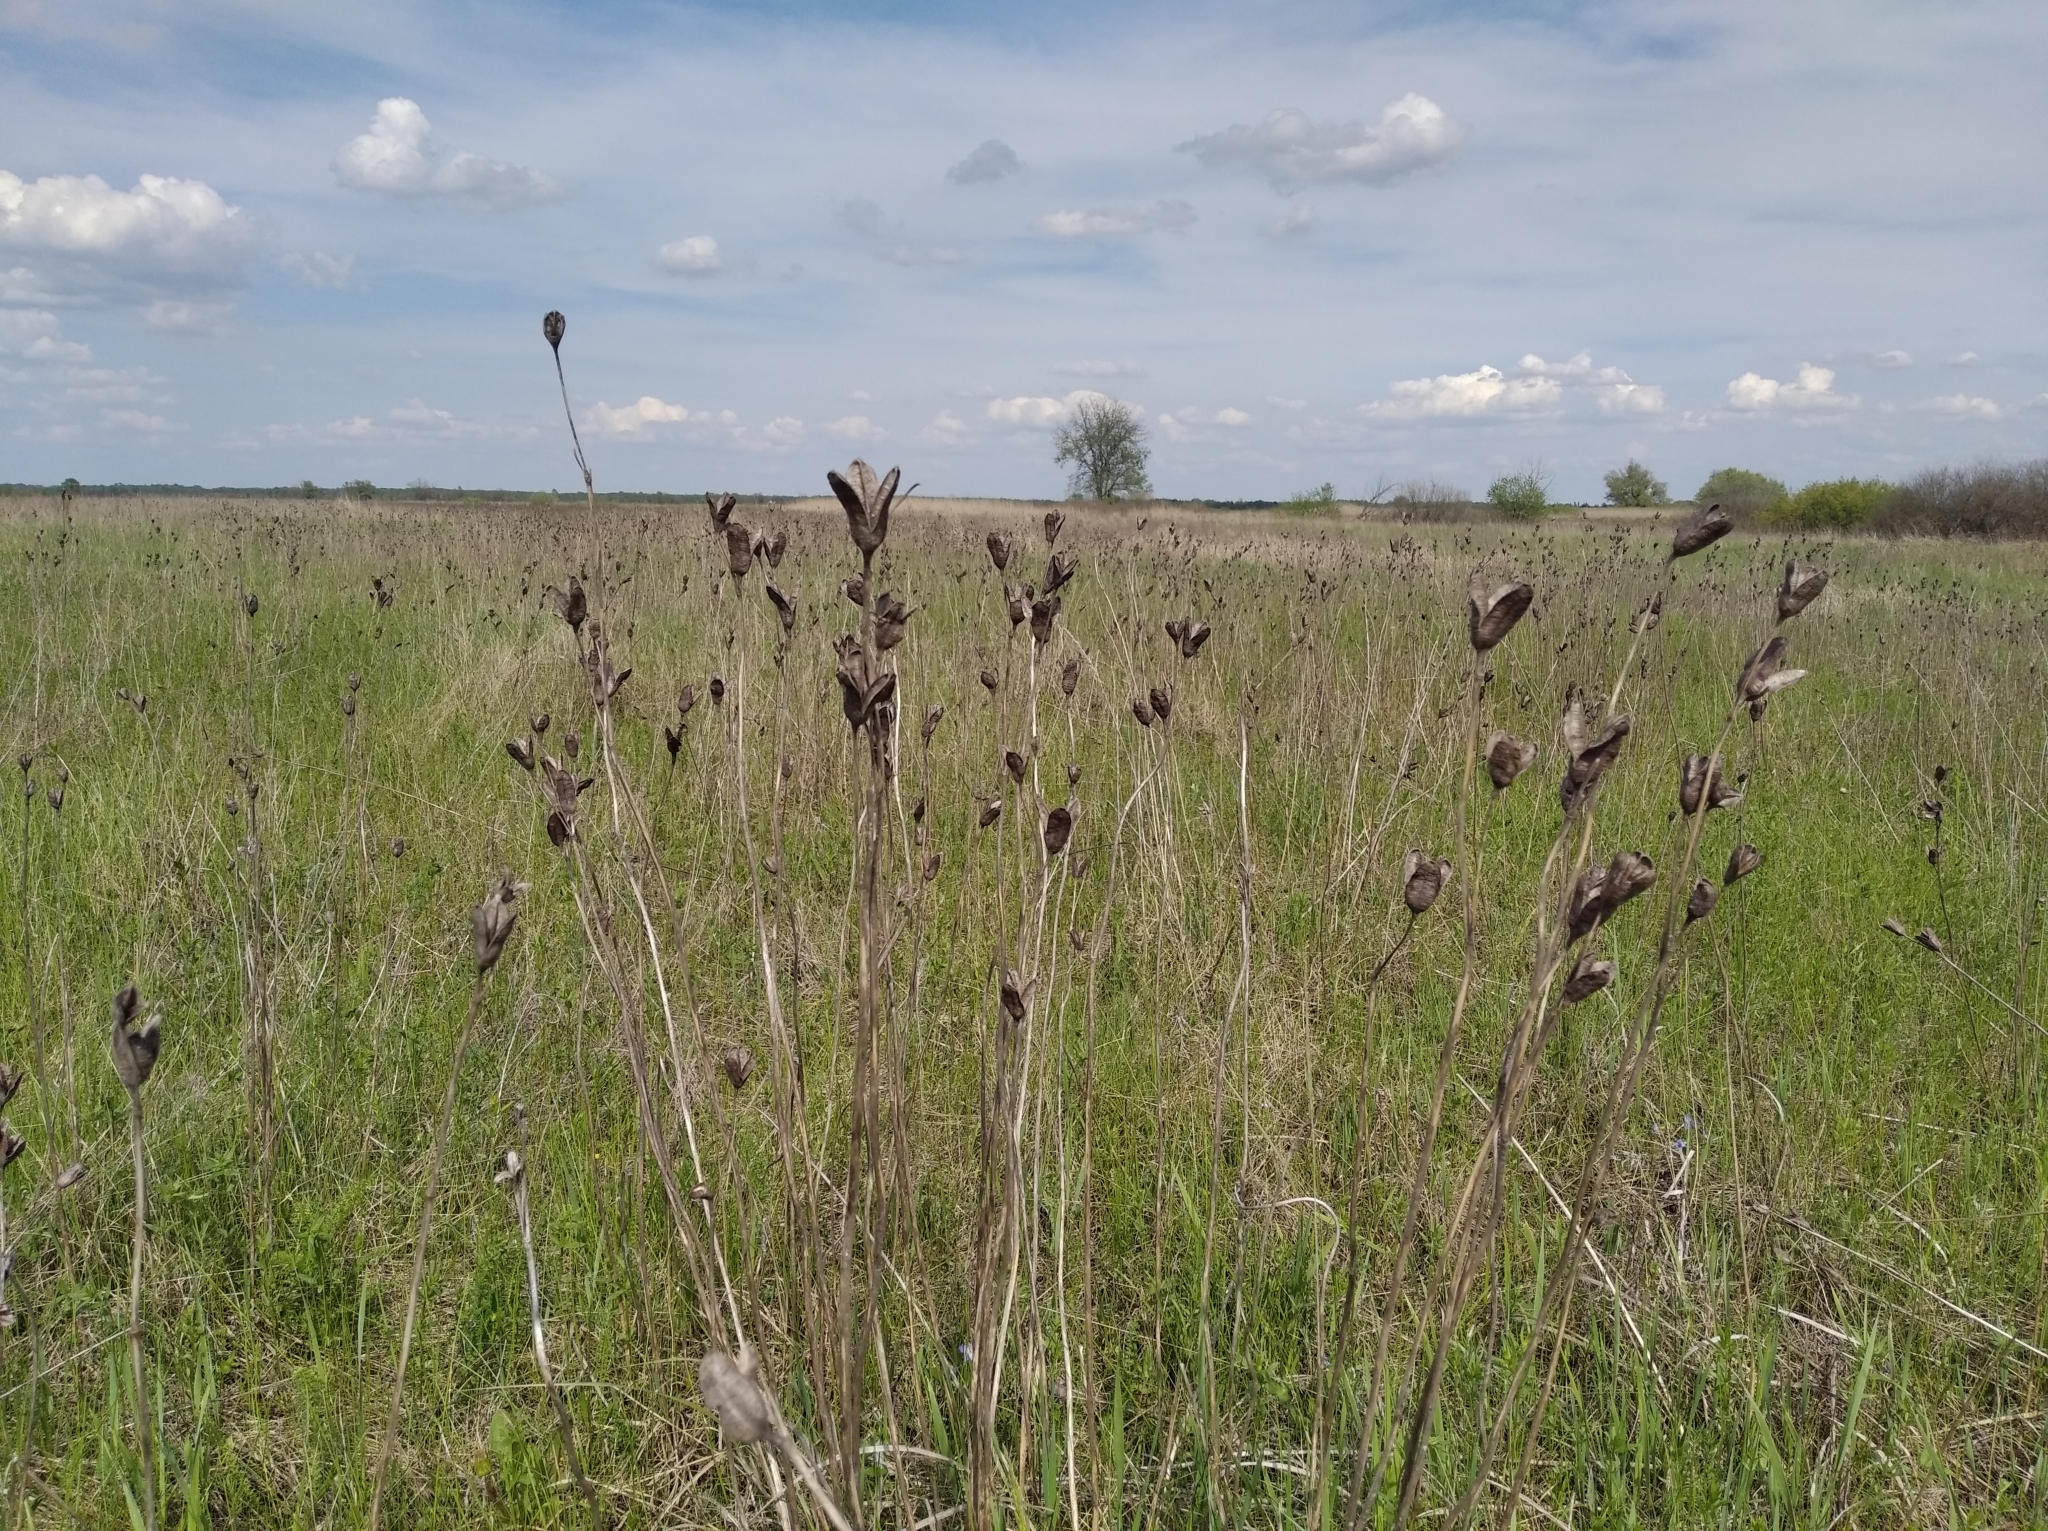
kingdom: Plantae
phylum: Tracheophyta
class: Liliopsida
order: Asparagales
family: Iridaceae
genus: Iris
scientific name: Iris sibirica
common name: Siberian iris
